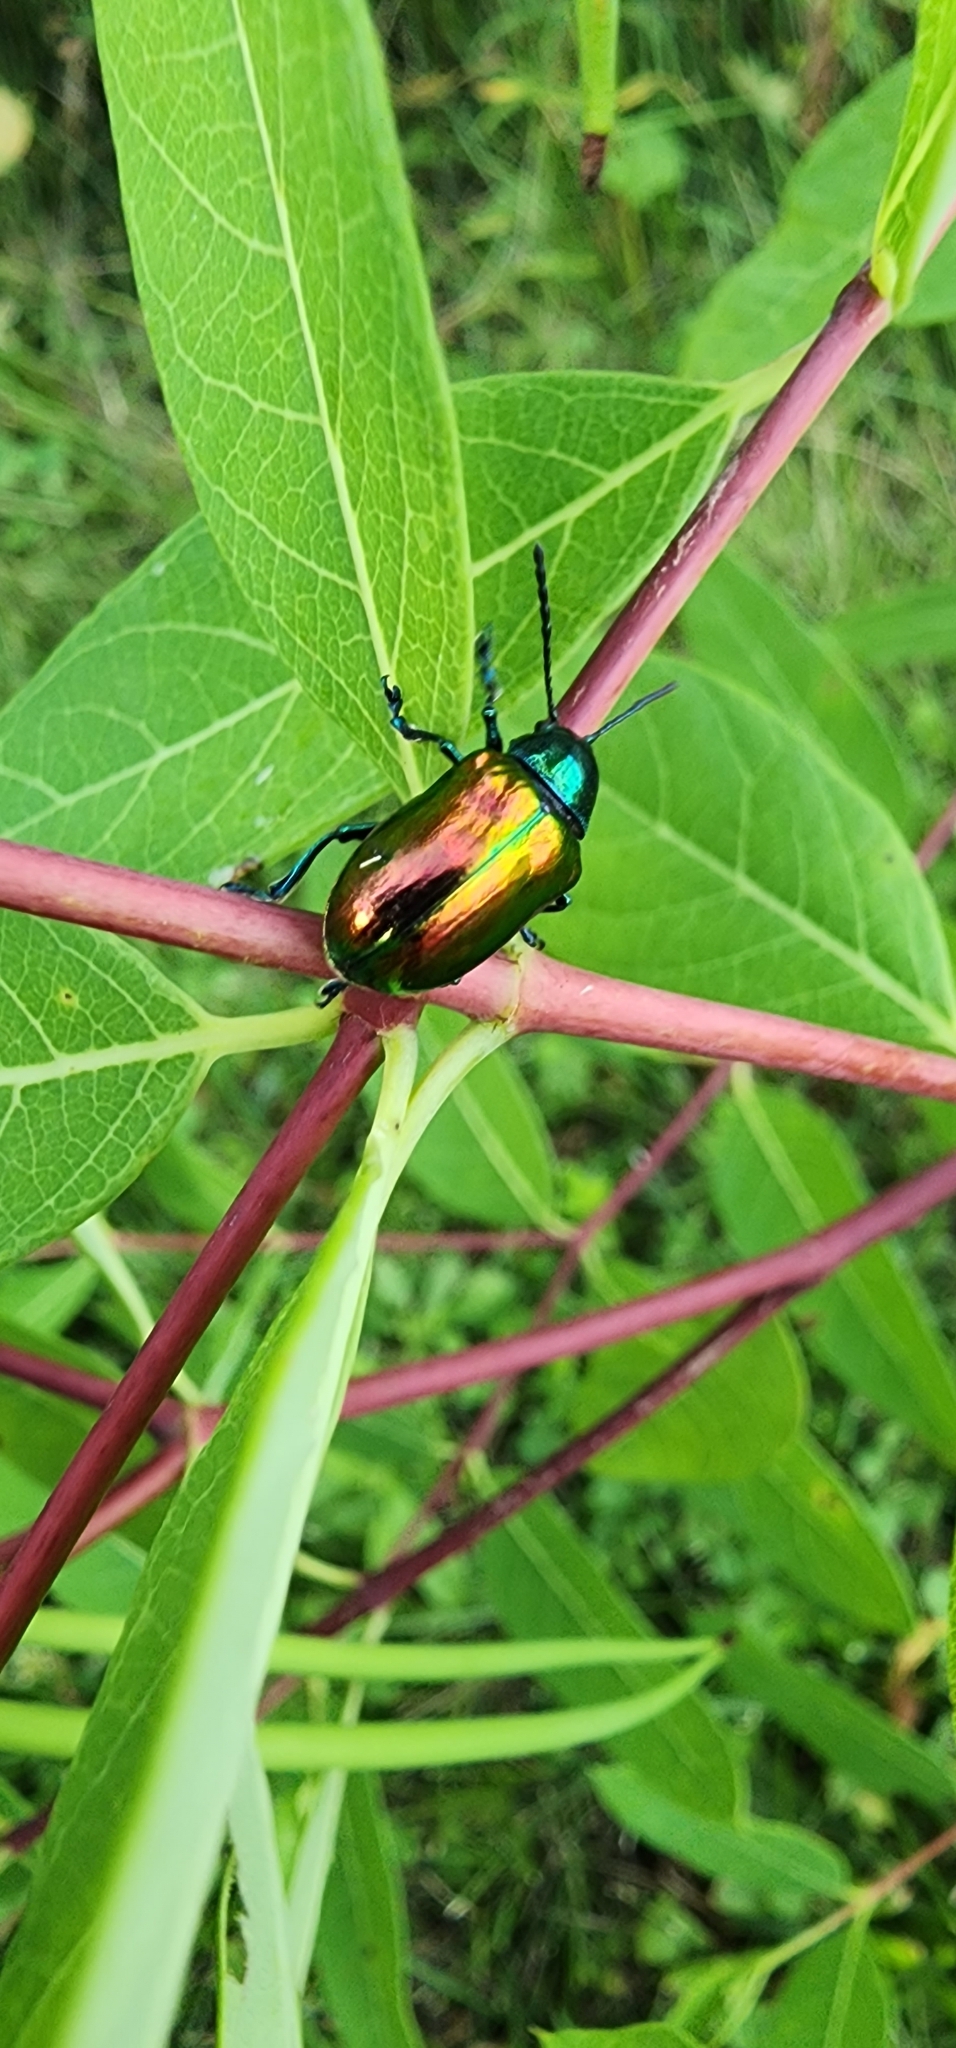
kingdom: Animalia
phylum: Arthropoda
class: Insecta
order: Coleoptera
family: Chrysomelidae
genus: Chrysochus
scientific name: Chrysochus auratus
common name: Dogbane leaf beetle
